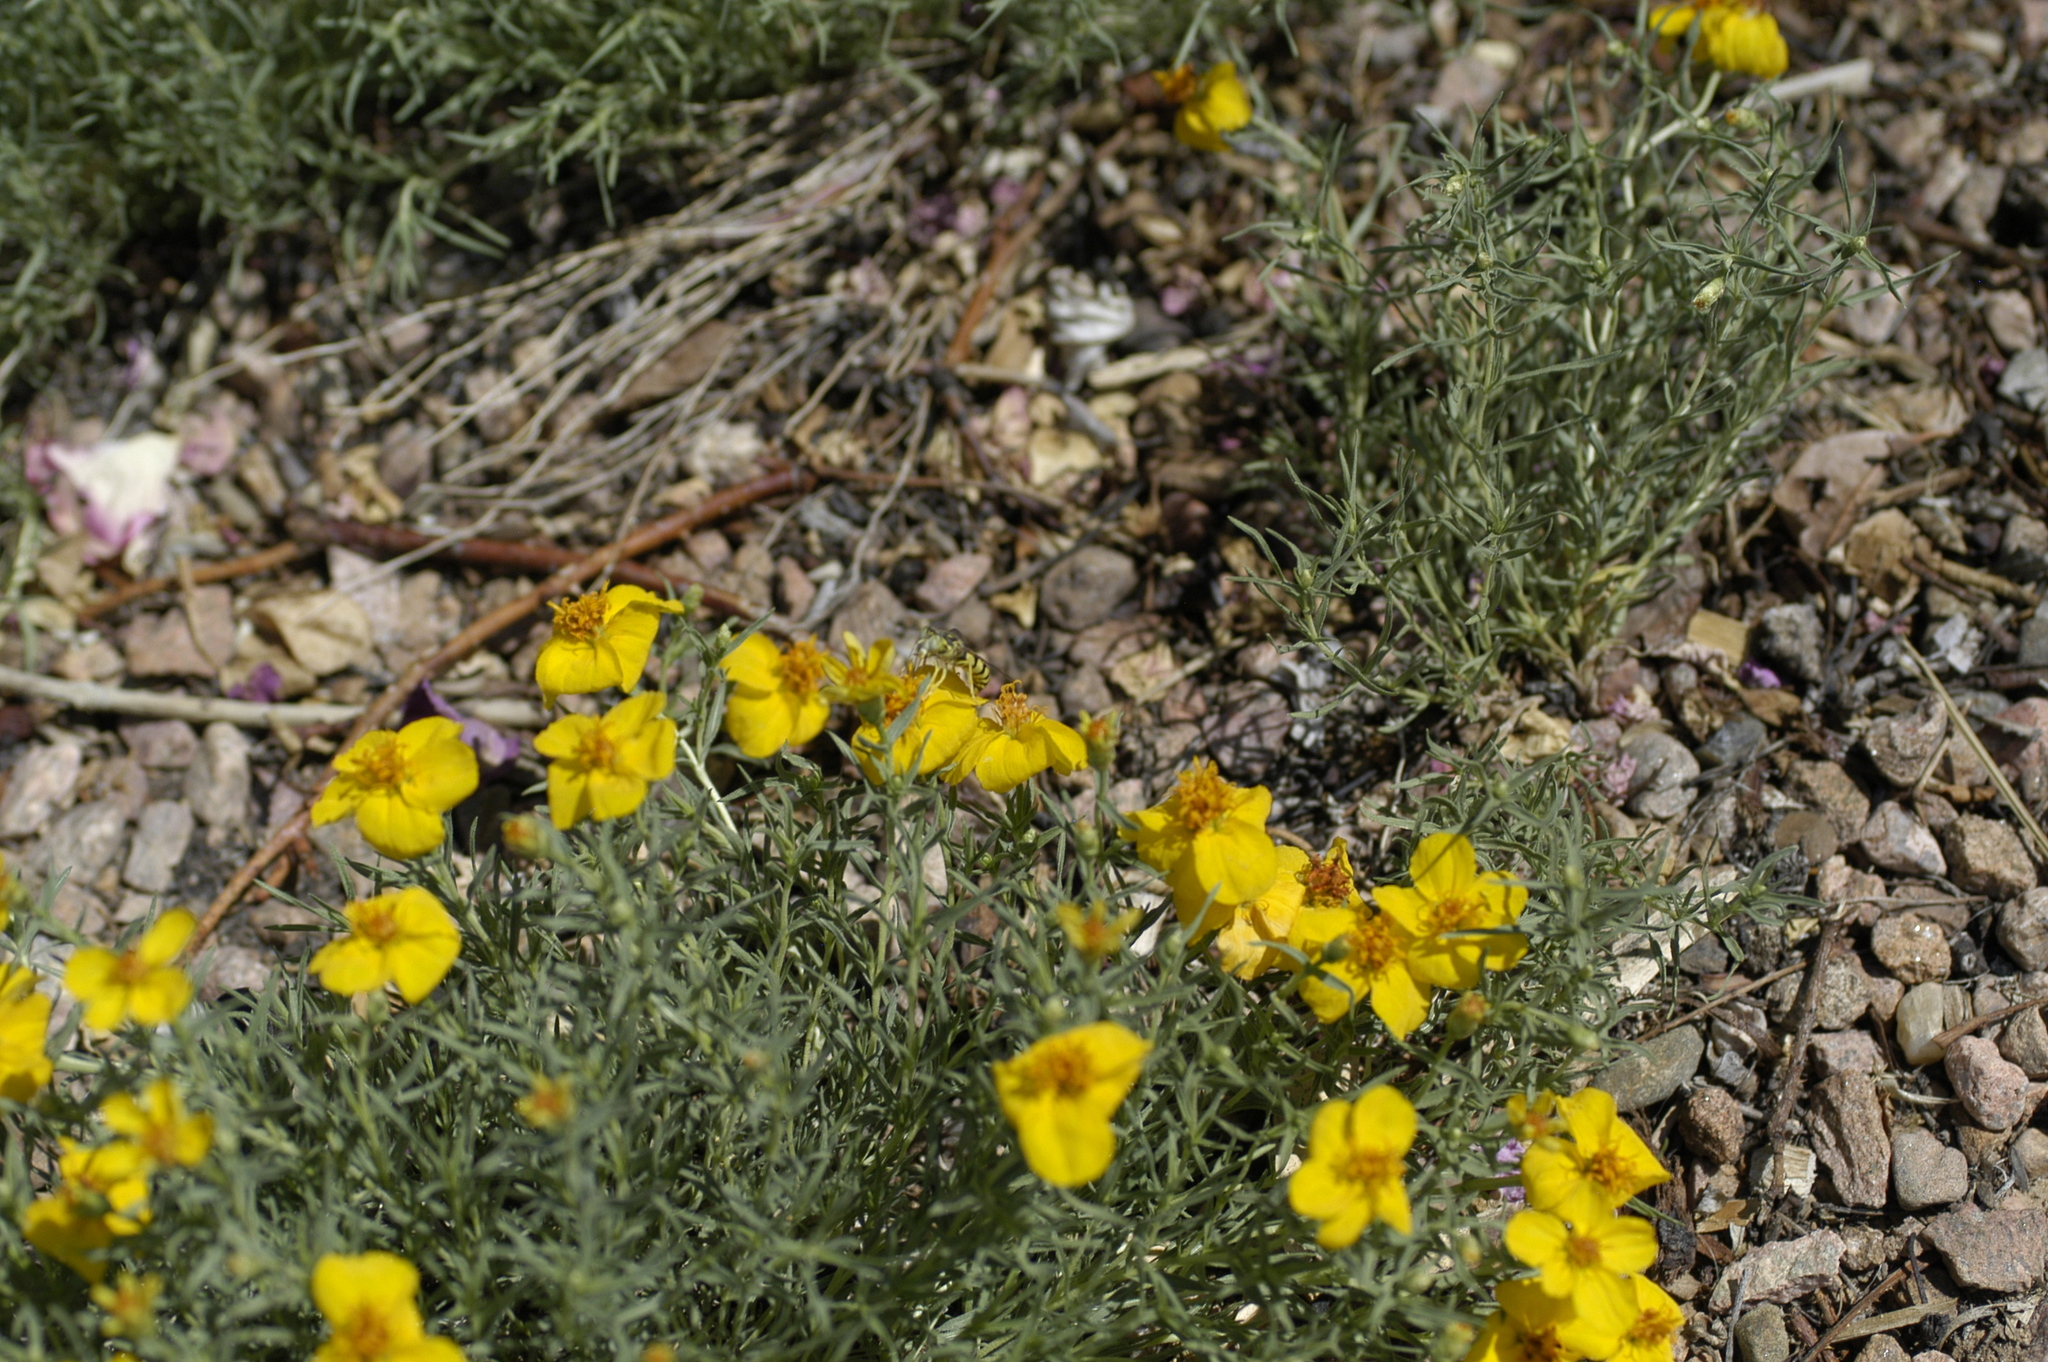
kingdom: Animalia
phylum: Arthropoda
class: Insecta
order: Hymenoptera
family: Crabronidae
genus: Steniolia
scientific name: Steniolia
